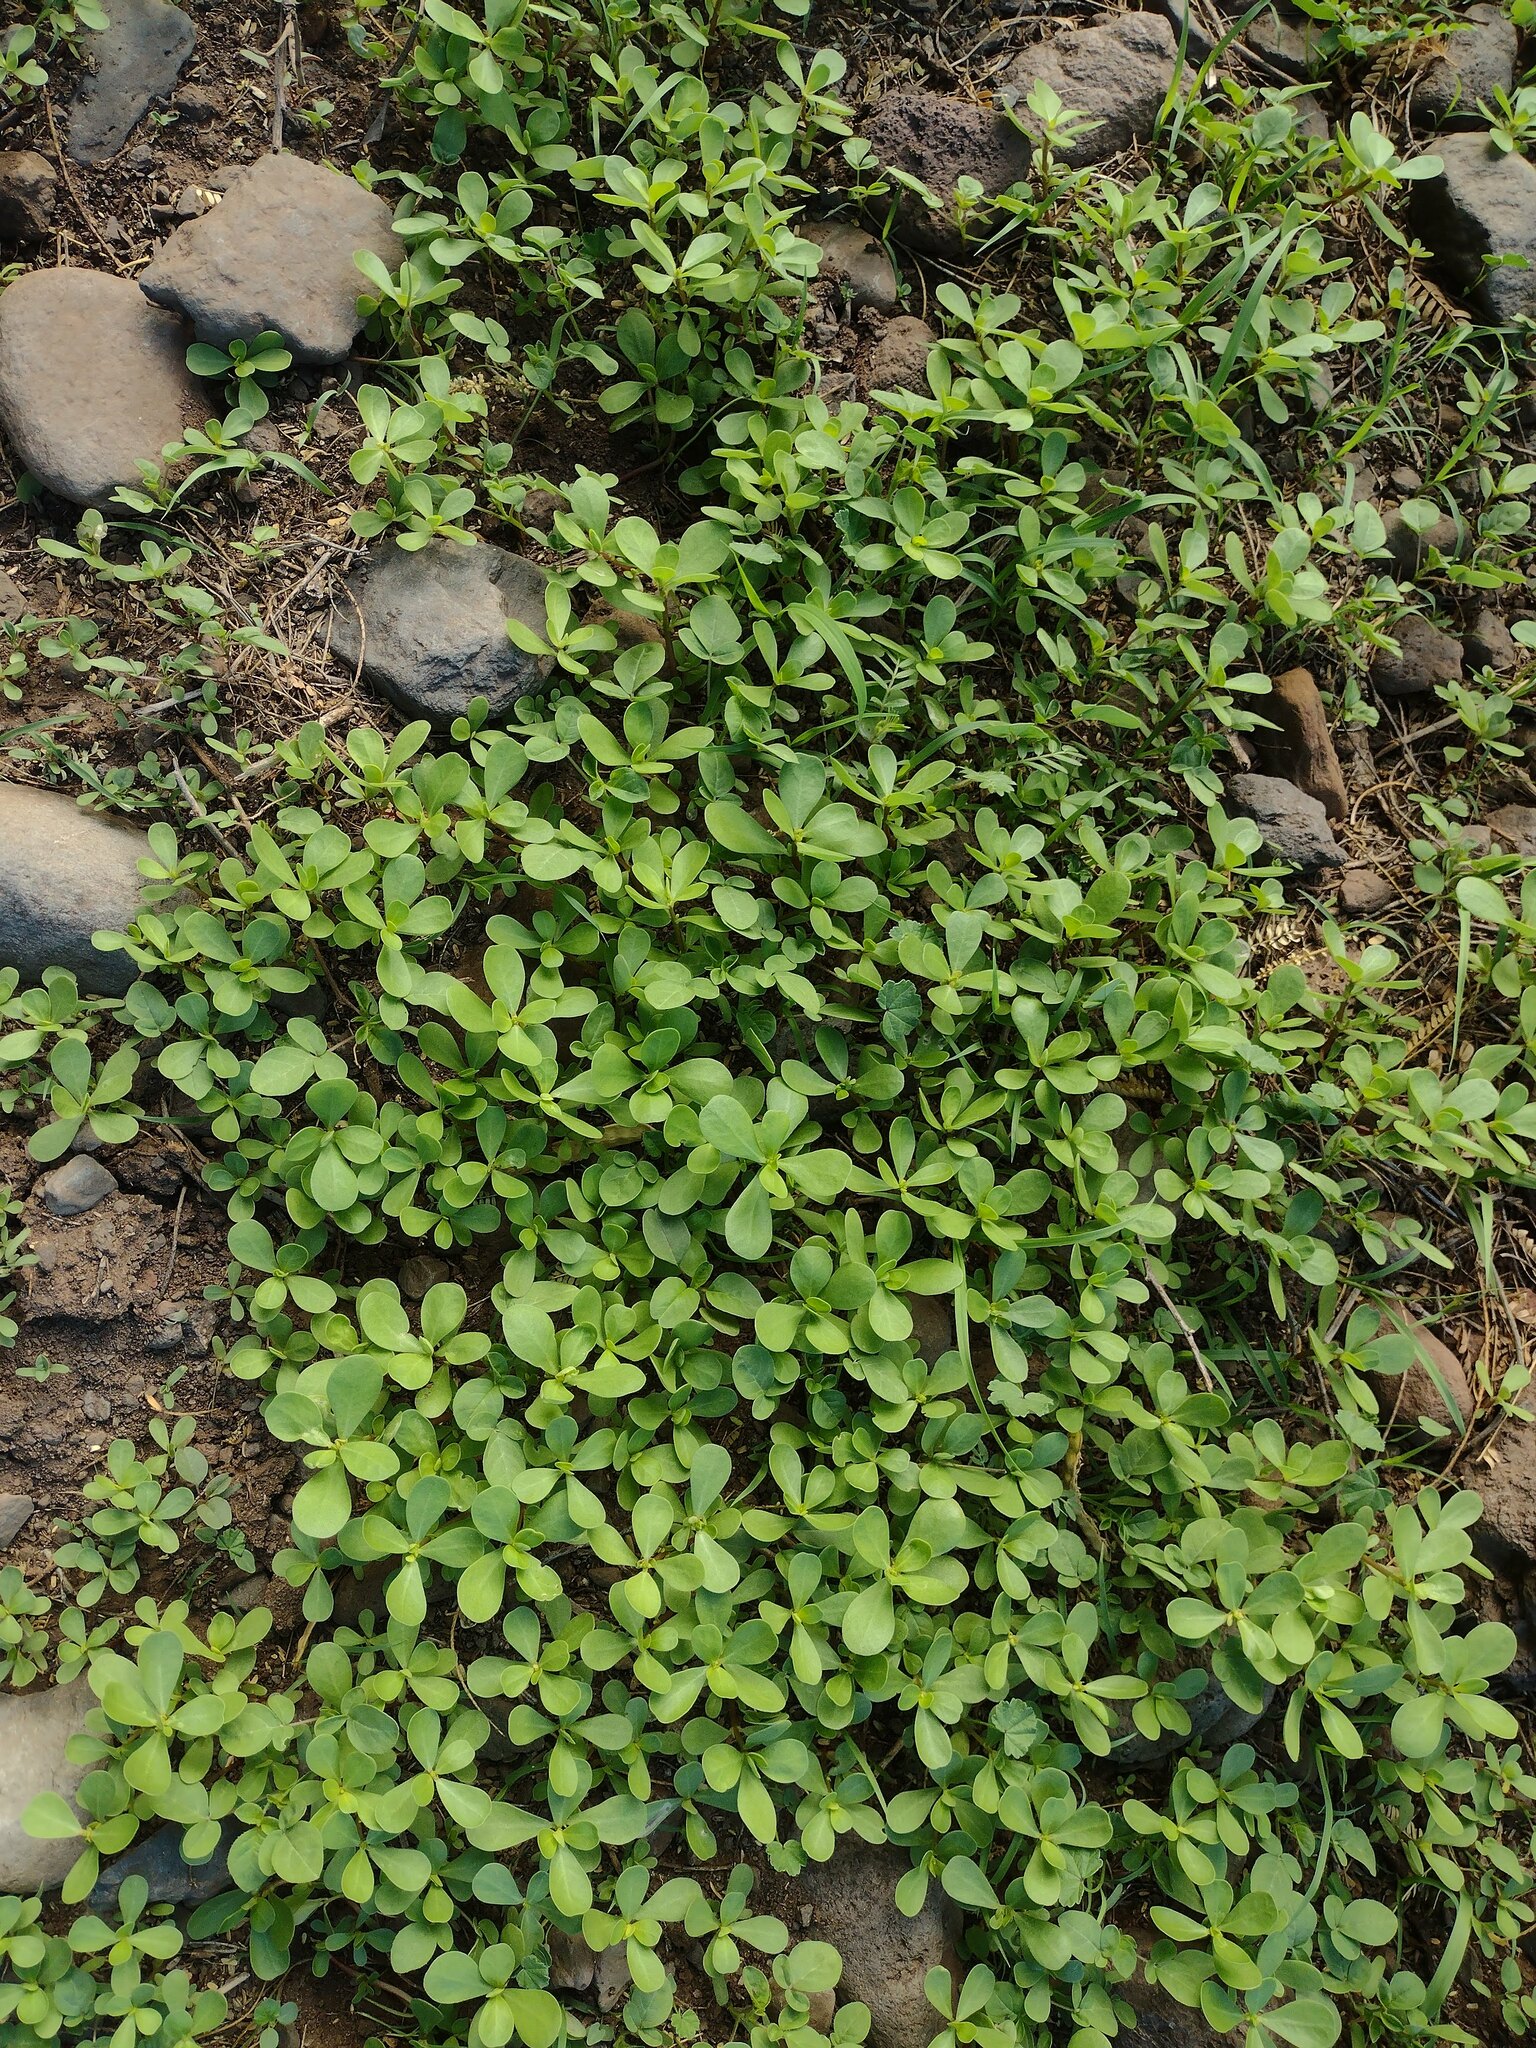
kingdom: Plantae
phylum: Tracheophyta
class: Magnoliopsida
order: Caryophyllales
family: Portulacaceae
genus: Portulaca
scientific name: Portulaca oleracea
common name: Common purslane
